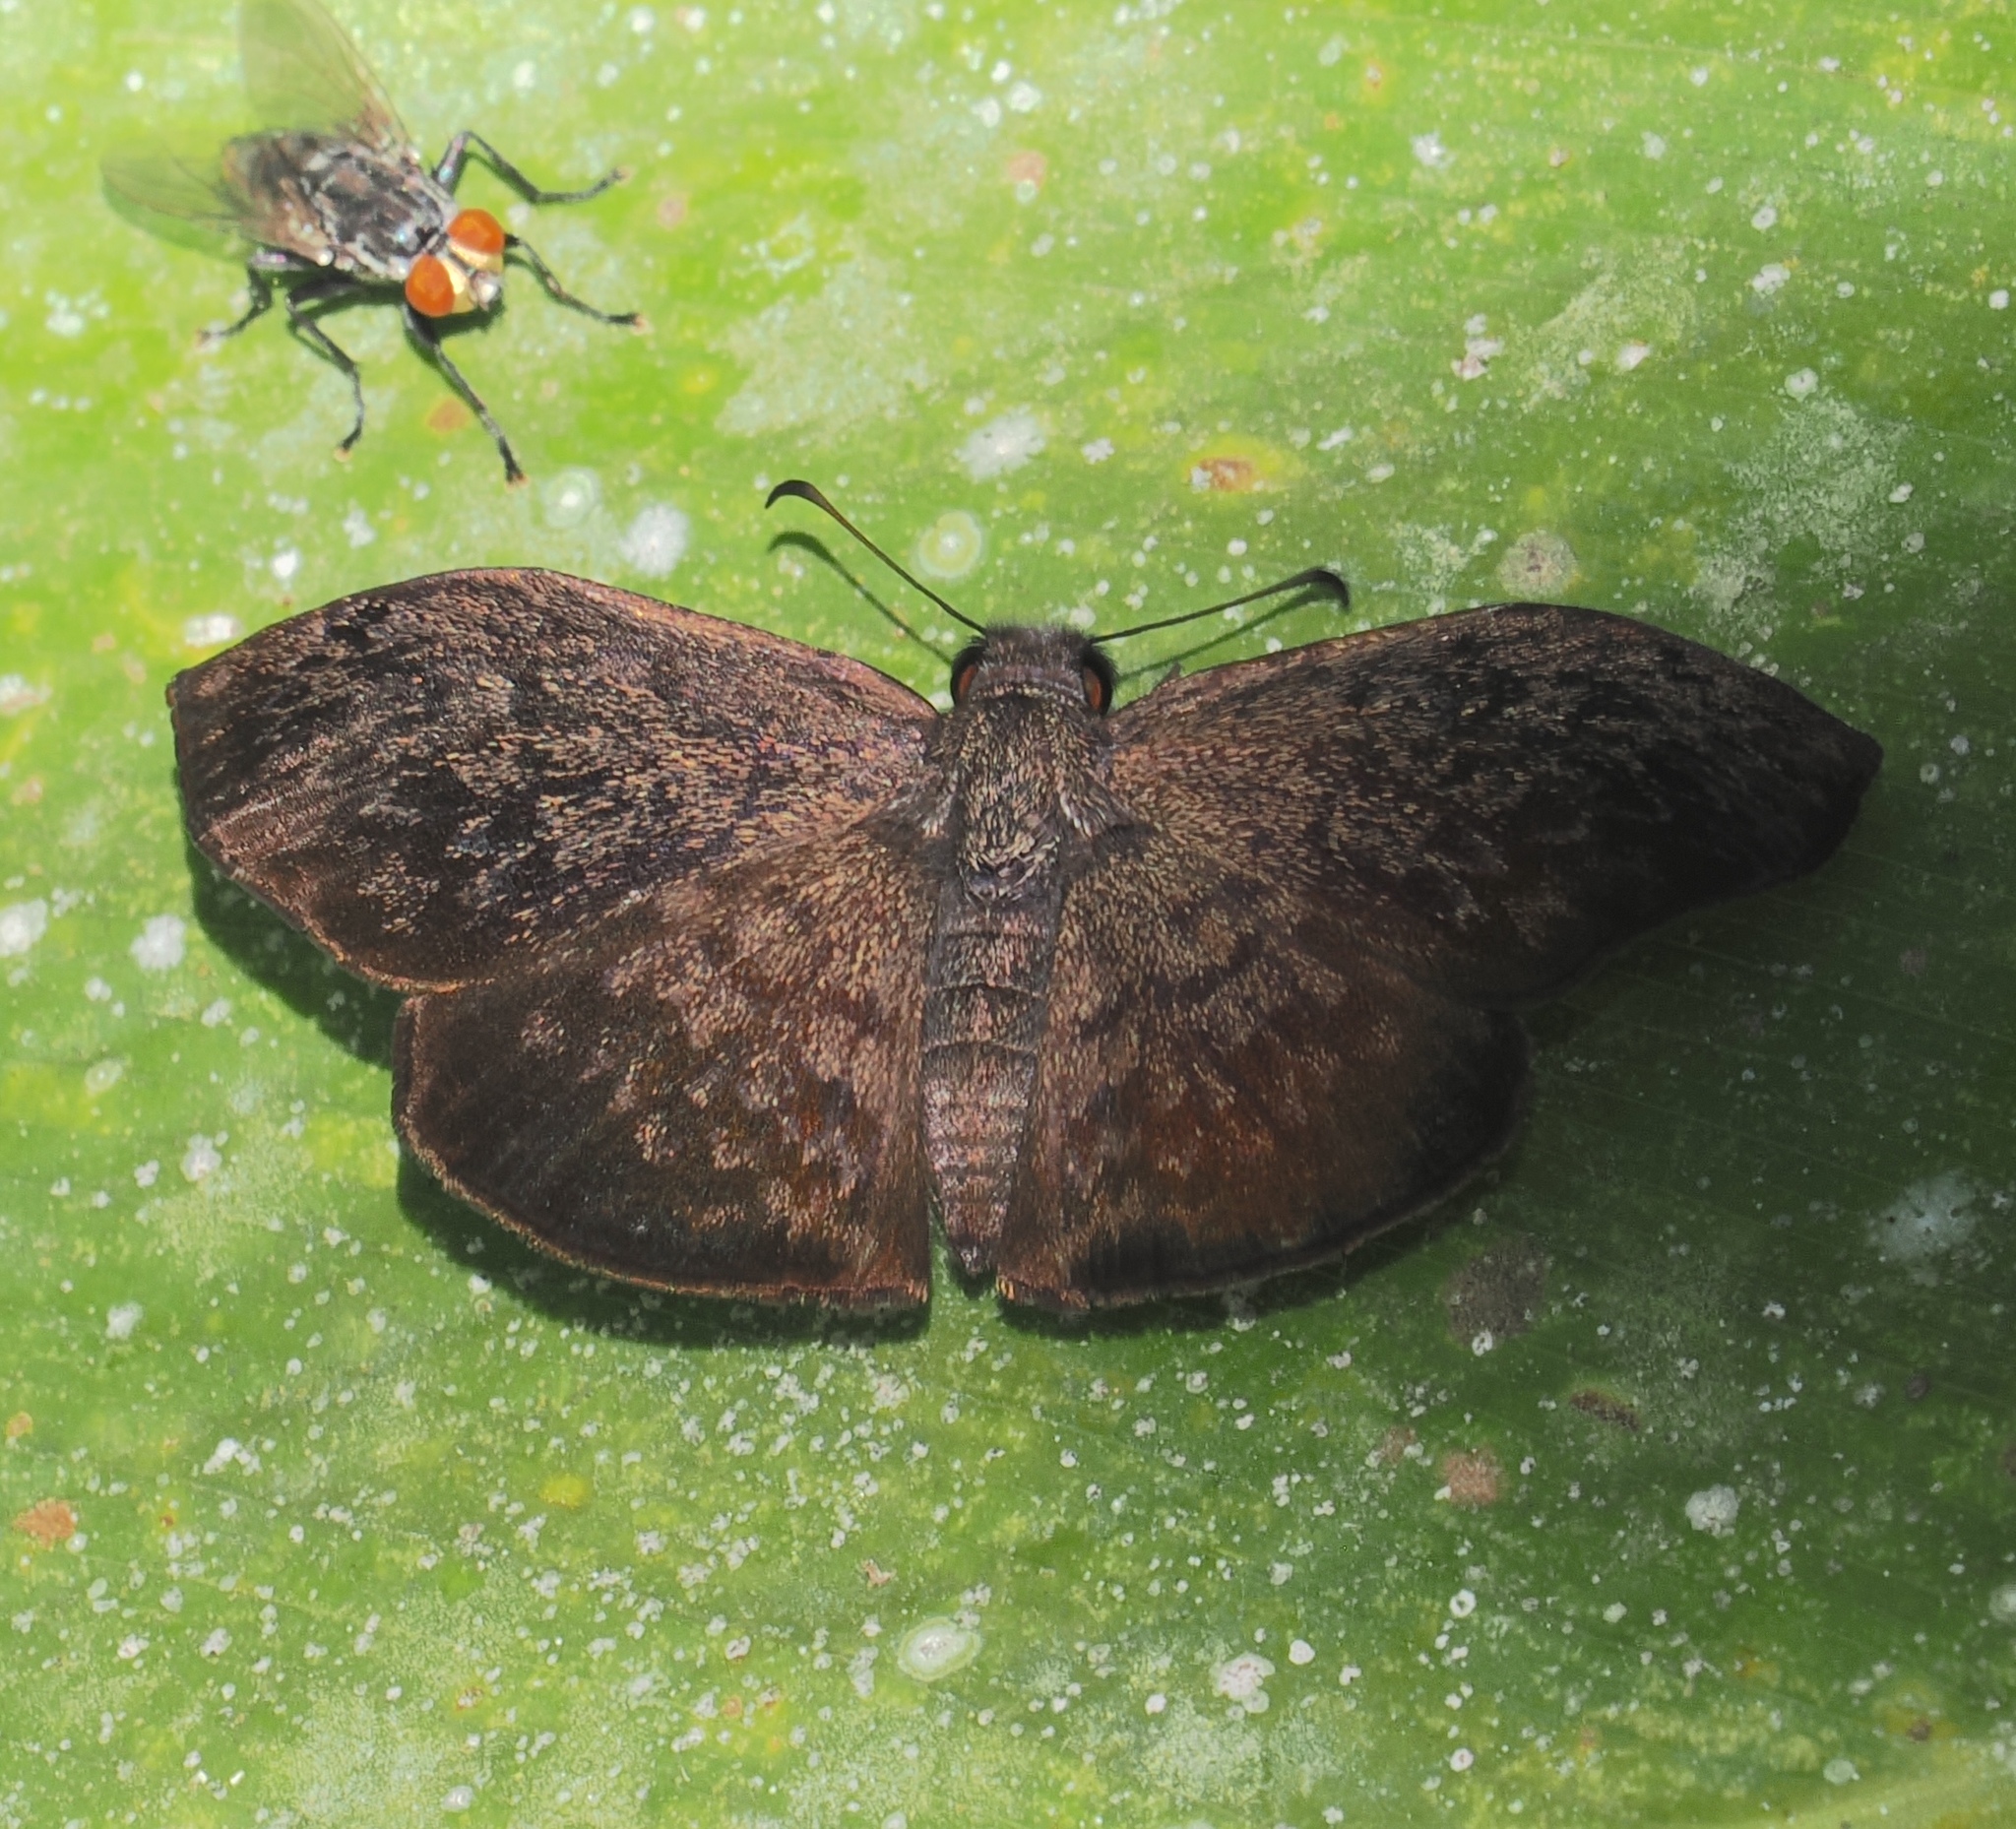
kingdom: Animalia
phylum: Arthropoda
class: Insecta
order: Lepidoptera
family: Hesperiidae
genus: Camptopleura
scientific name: Camptopleura auxo
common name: Auxo bent-skipper
